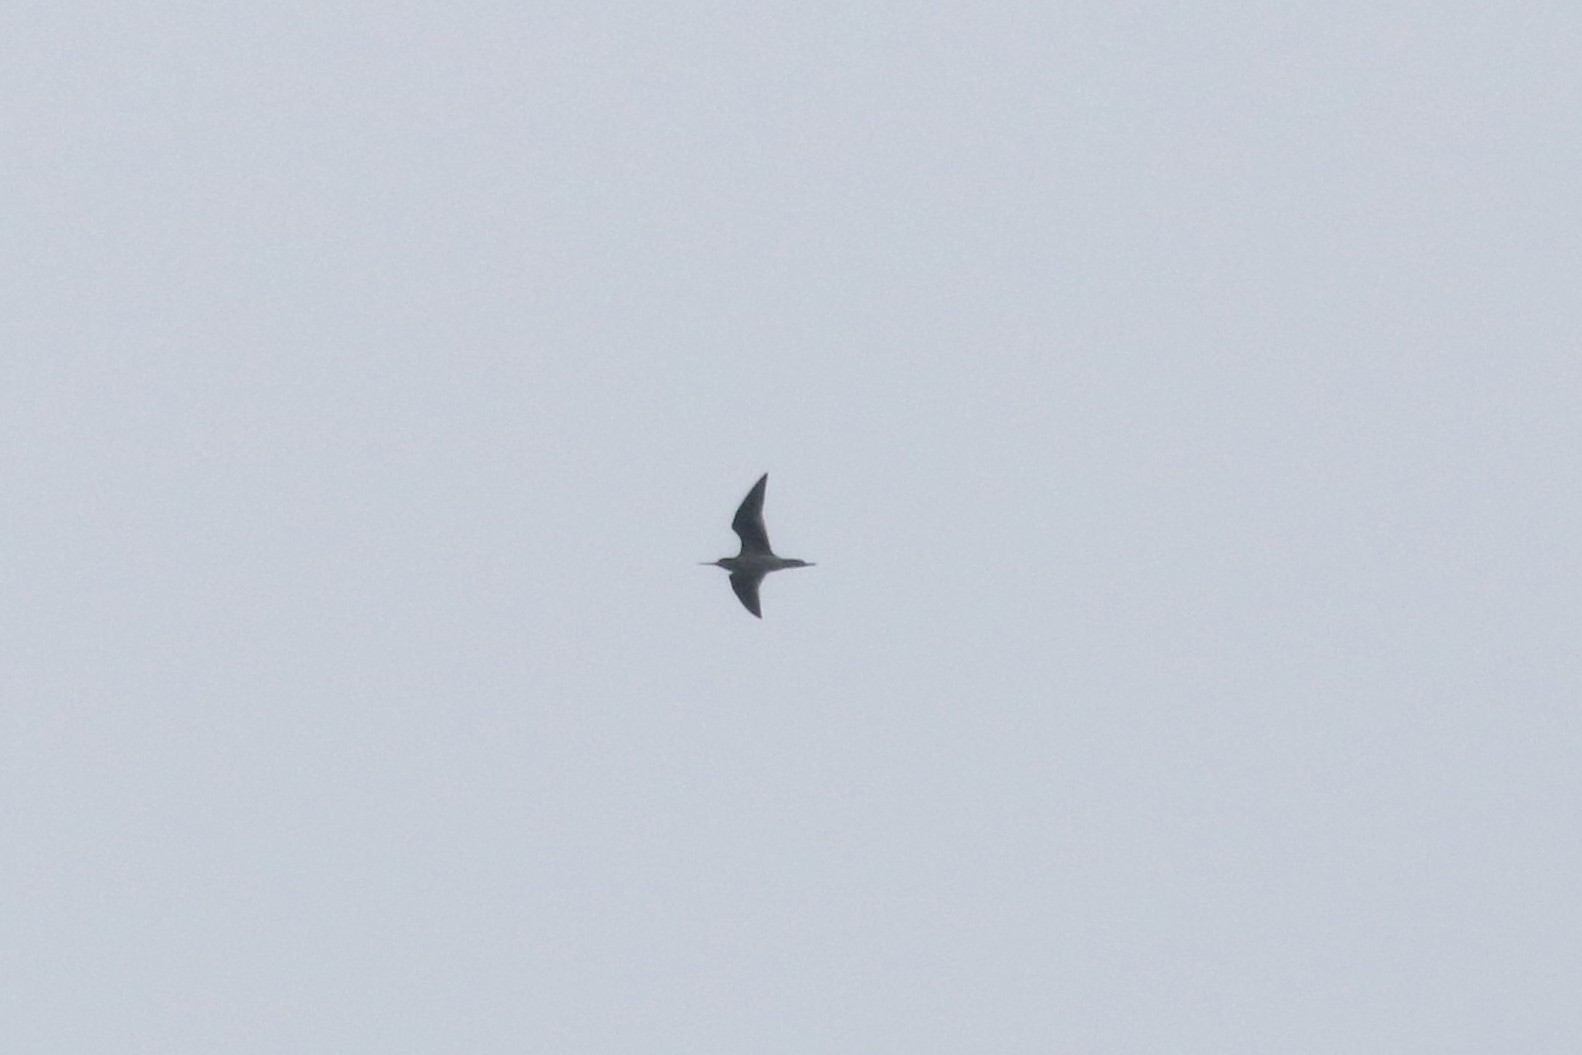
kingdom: Animalia
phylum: Chordata
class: Aves
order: Charadriiformes
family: Scolopacidae
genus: Tringa
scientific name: Tringa nebularia
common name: Common greenshank
